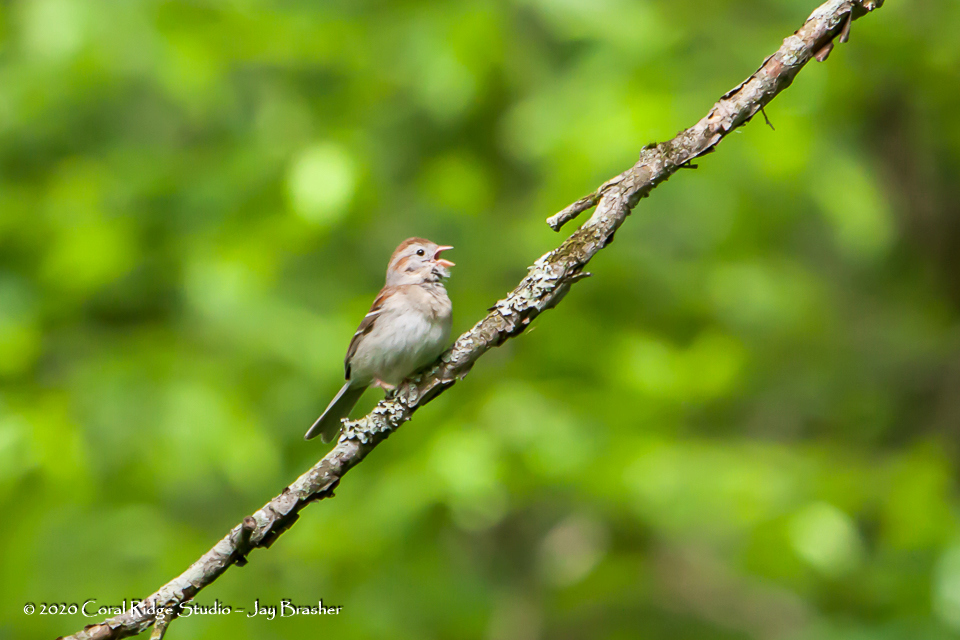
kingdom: Animalia
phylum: Chordata
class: Aves
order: Passeriformes
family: Passerellidae
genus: Spizella
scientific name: Spizella pusilla
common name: Field sparrow
